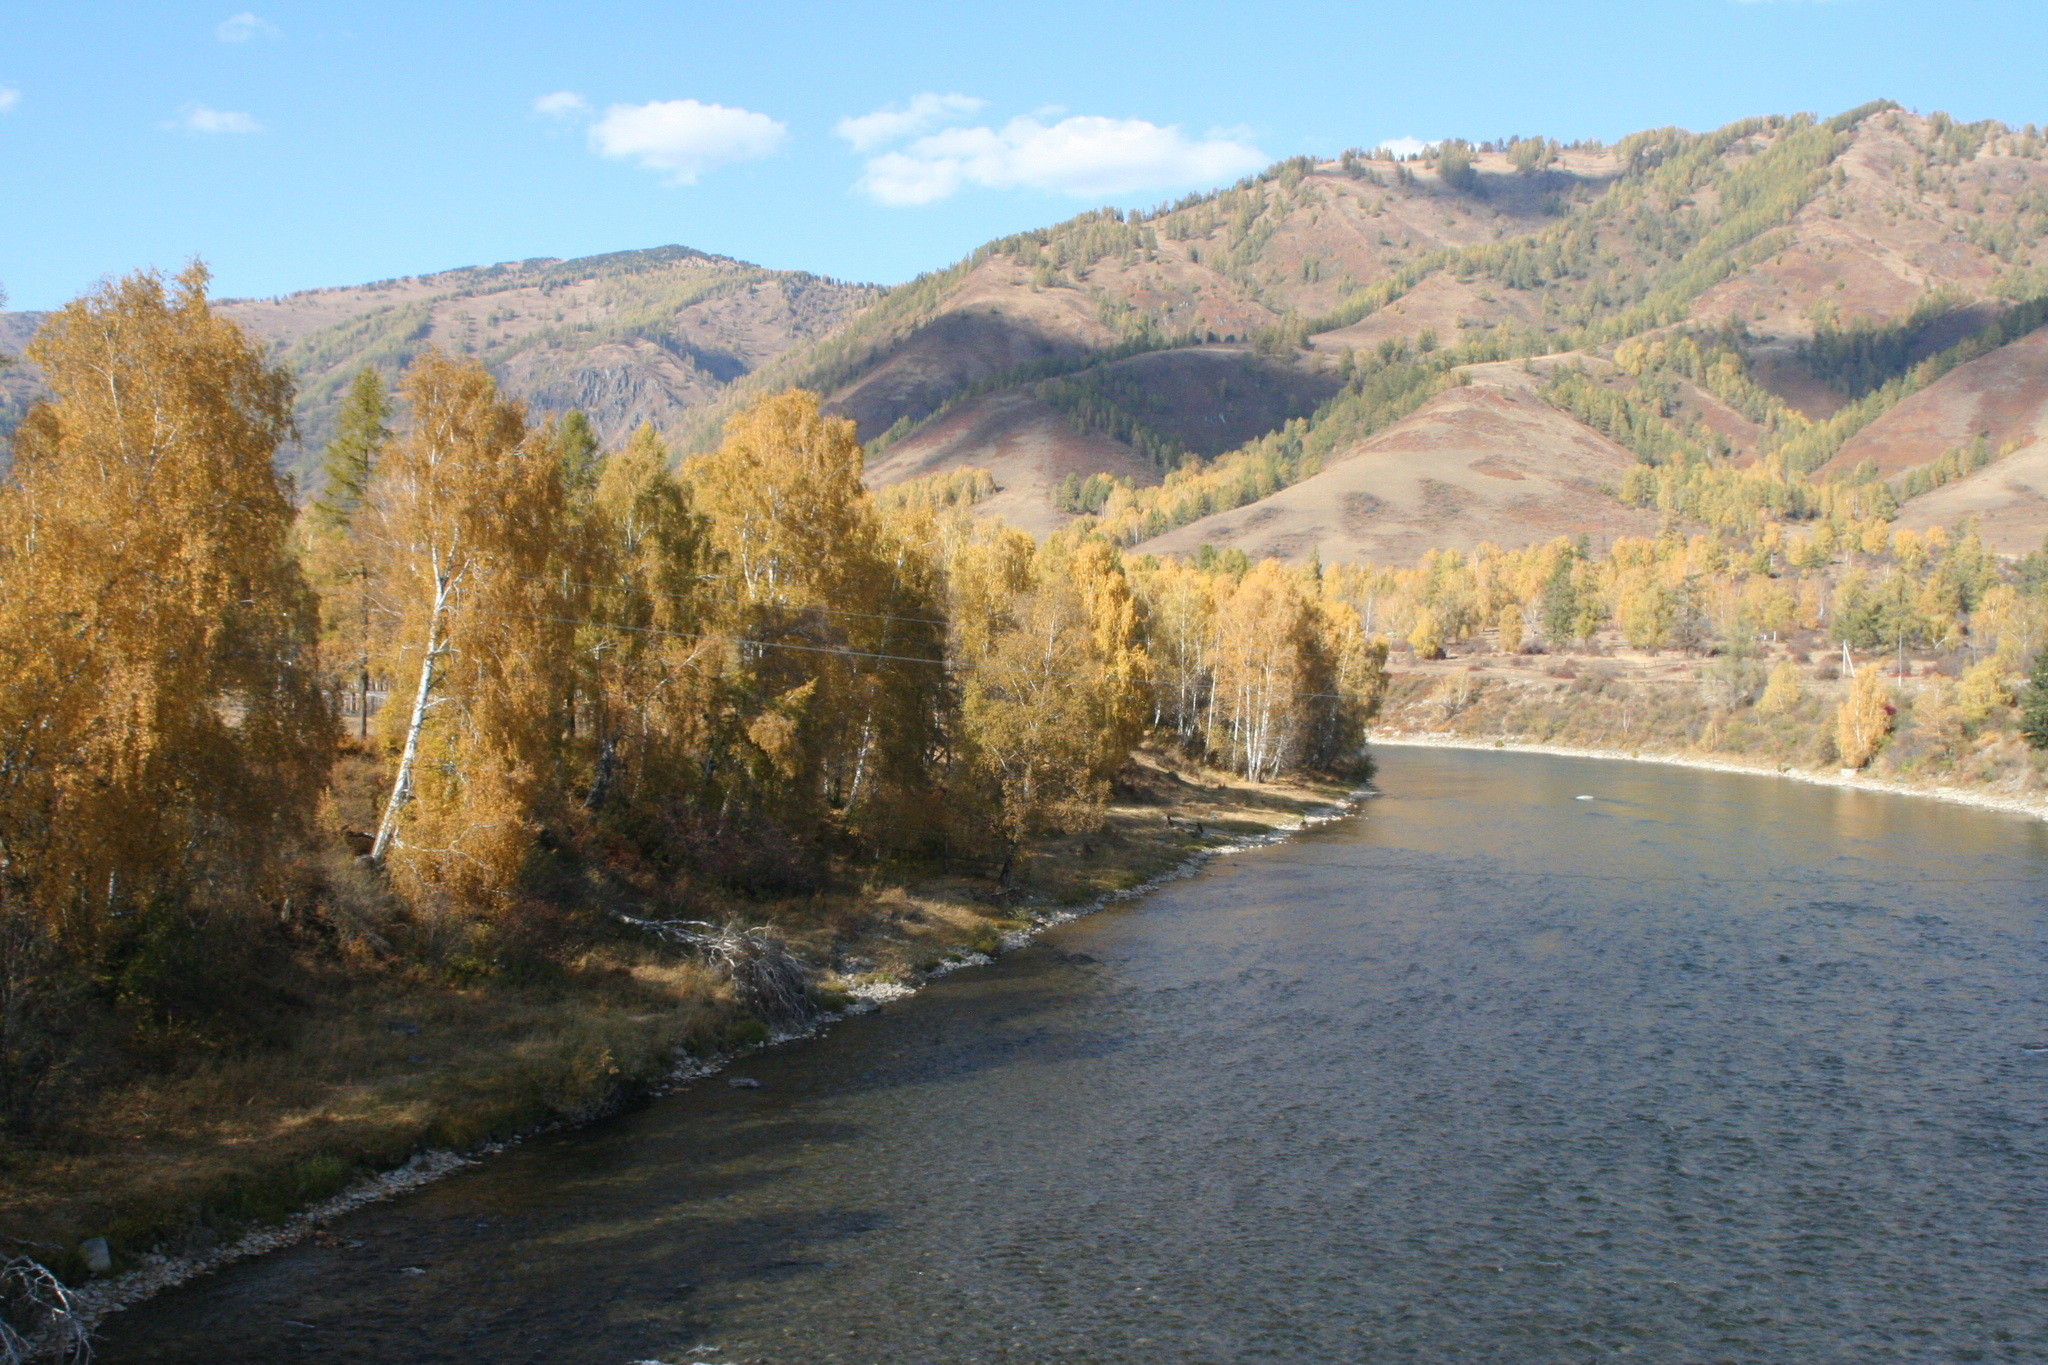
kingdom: Plantae
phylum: Tracheophyta
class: Magnoliopsida
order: Fagales
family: Betulaceae
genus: Betula
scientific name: Betula pendula
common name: Silver birch
